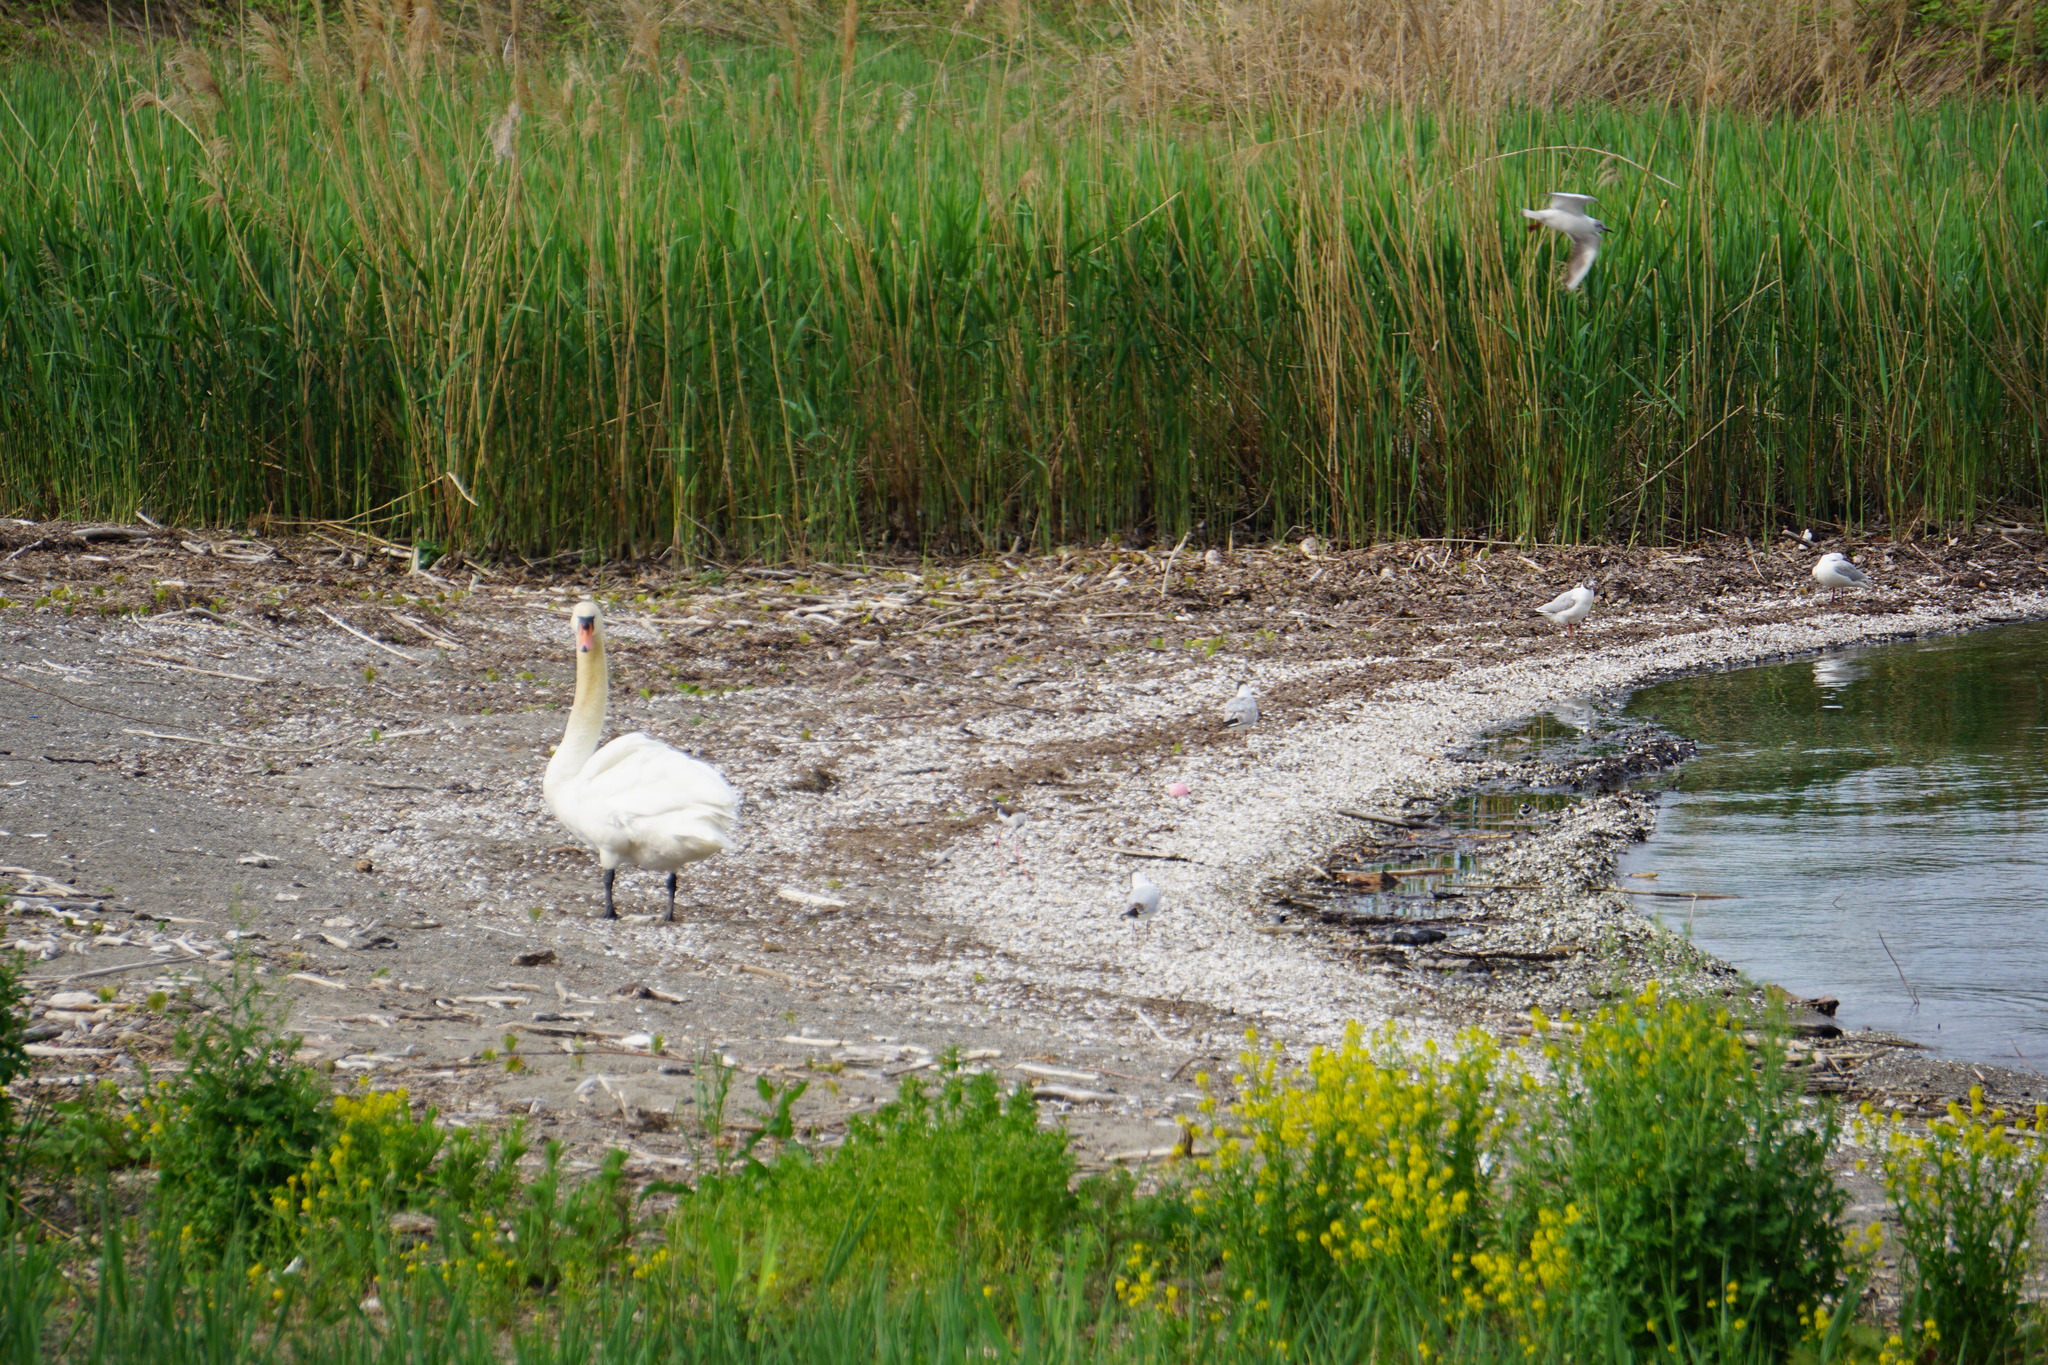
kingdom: Animalia
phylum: Chordata
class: Aves
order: Anseriformes
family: Anatidae
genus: Cygnus
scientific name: Cygnus olor
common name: Mute swan
